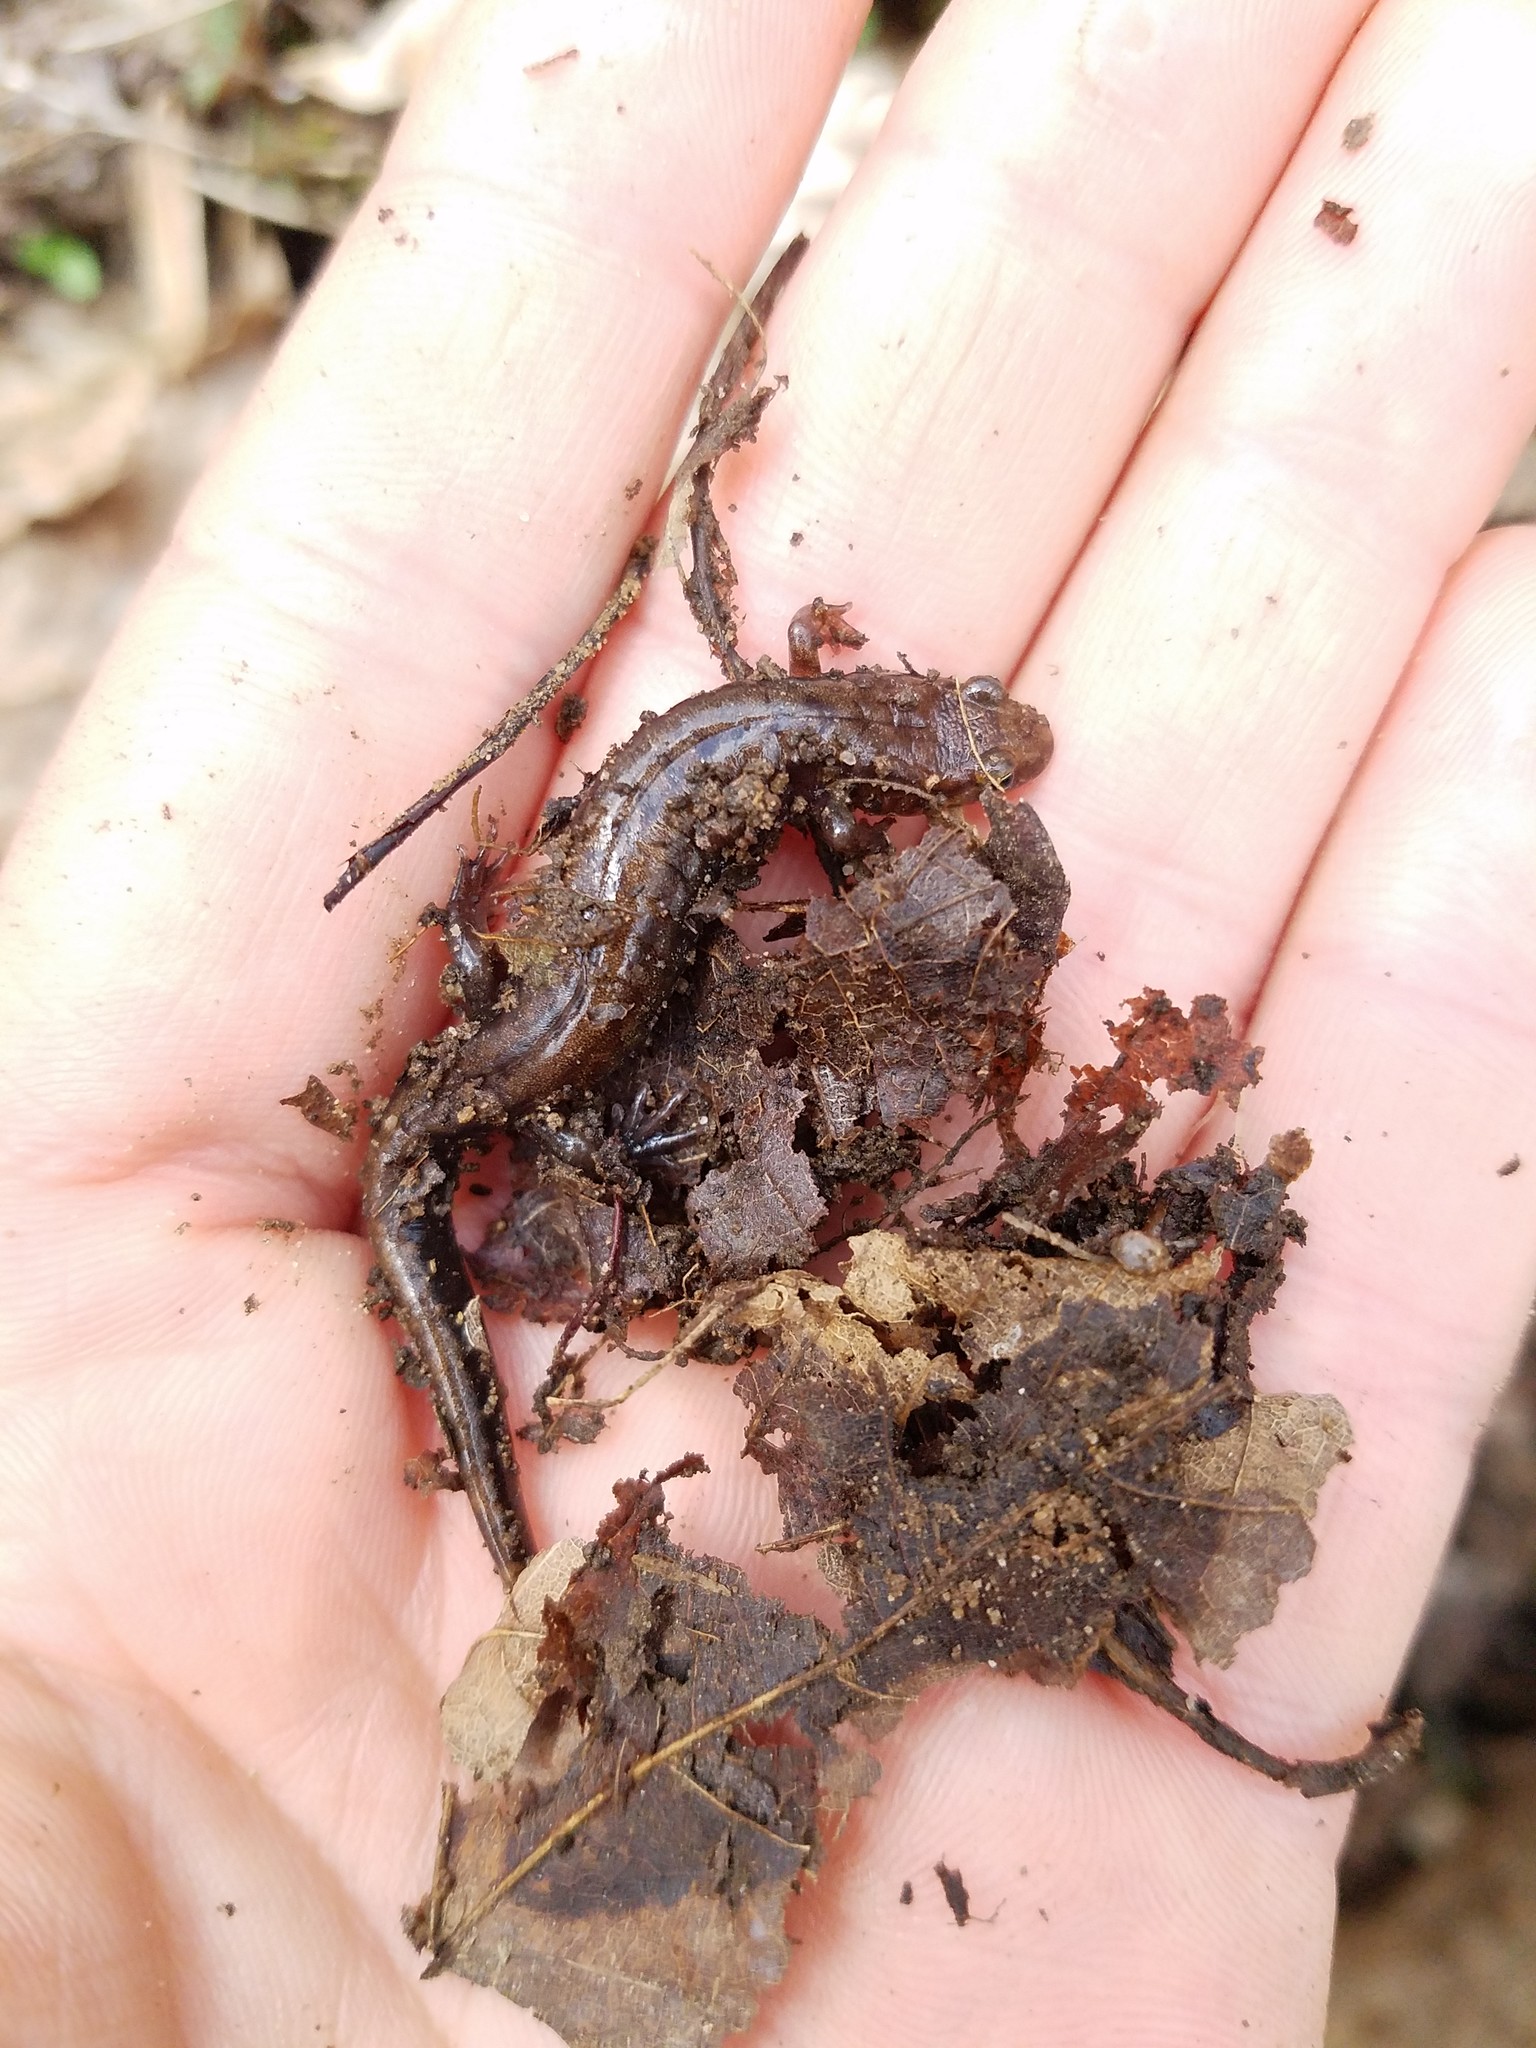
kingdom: Animalia
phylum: Chordata
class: Amphibia
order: Caudata
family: Plethodontidae
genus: Desmognathus
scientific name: Desmognathus ochrophaeus
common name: Allegheny mountain dusky salamander
